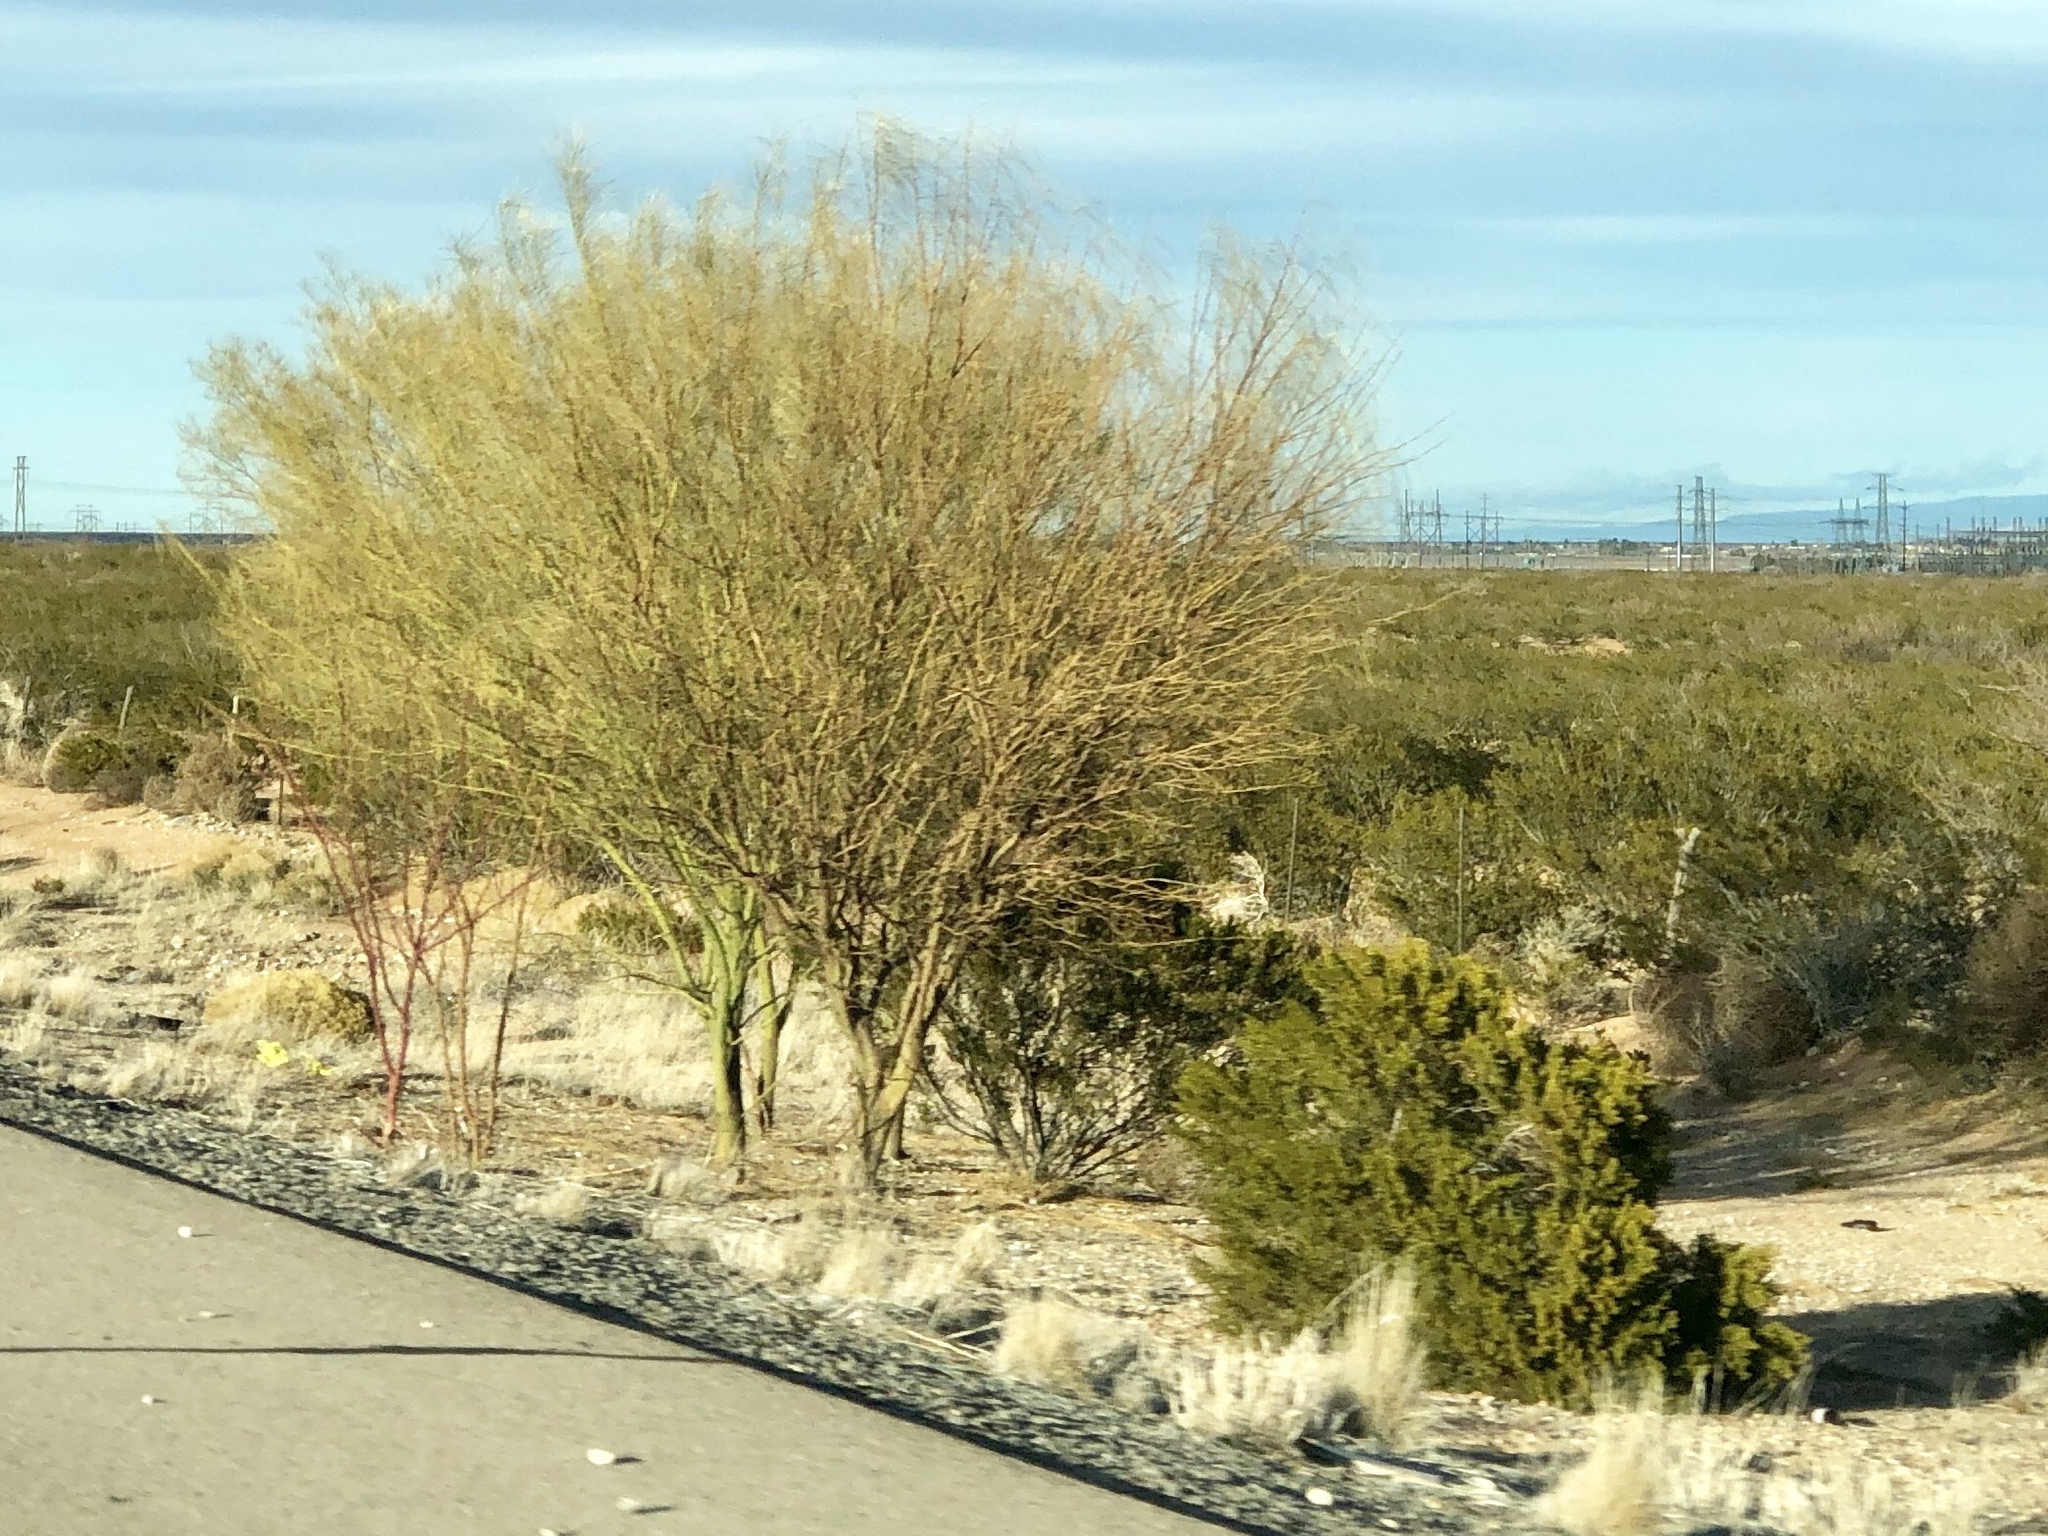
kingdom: Plantae
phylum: Tracheophyta
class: Magnoliopsida
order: Fabales
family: Fabaceae
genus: Parkinsonia
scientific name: Parkinsonia aculeata
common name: Jerusalem thorn
